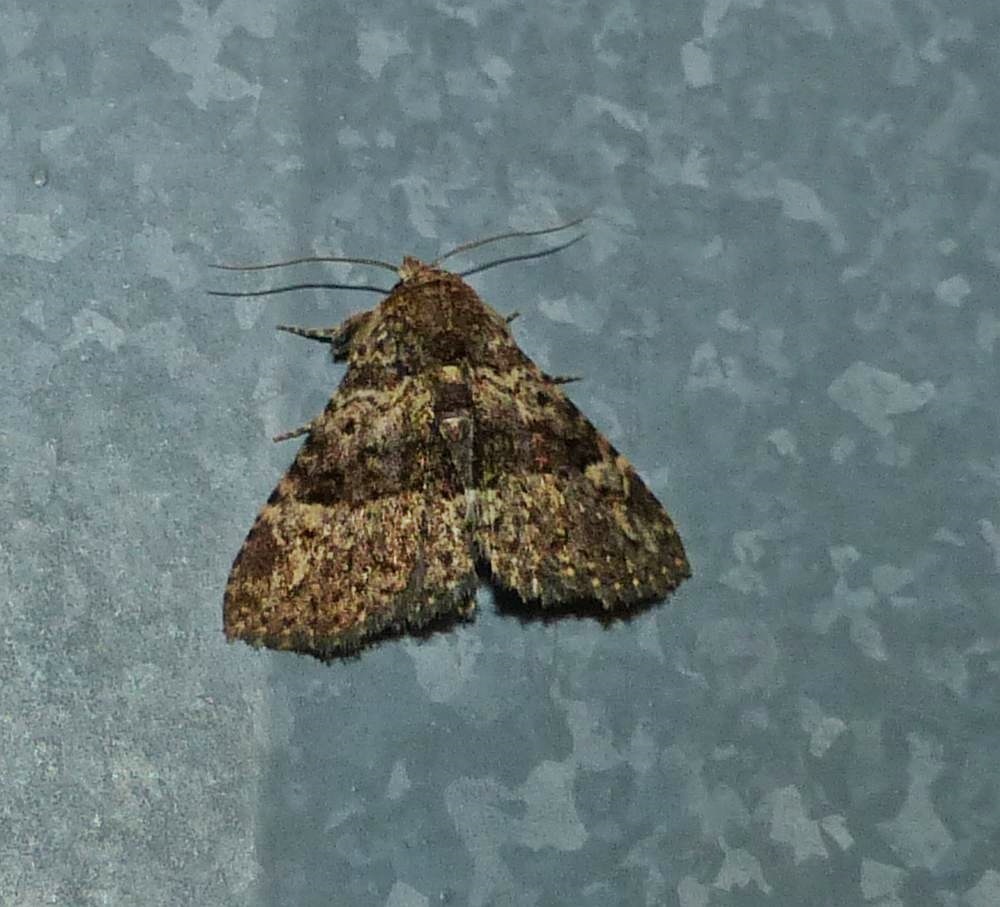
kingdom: Animalia
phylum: Arthropoda
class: Insecta
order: Lepidoptera
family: Erebidae
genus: Metalectra
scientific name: Metalectra discalis
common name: Common fungus moth
